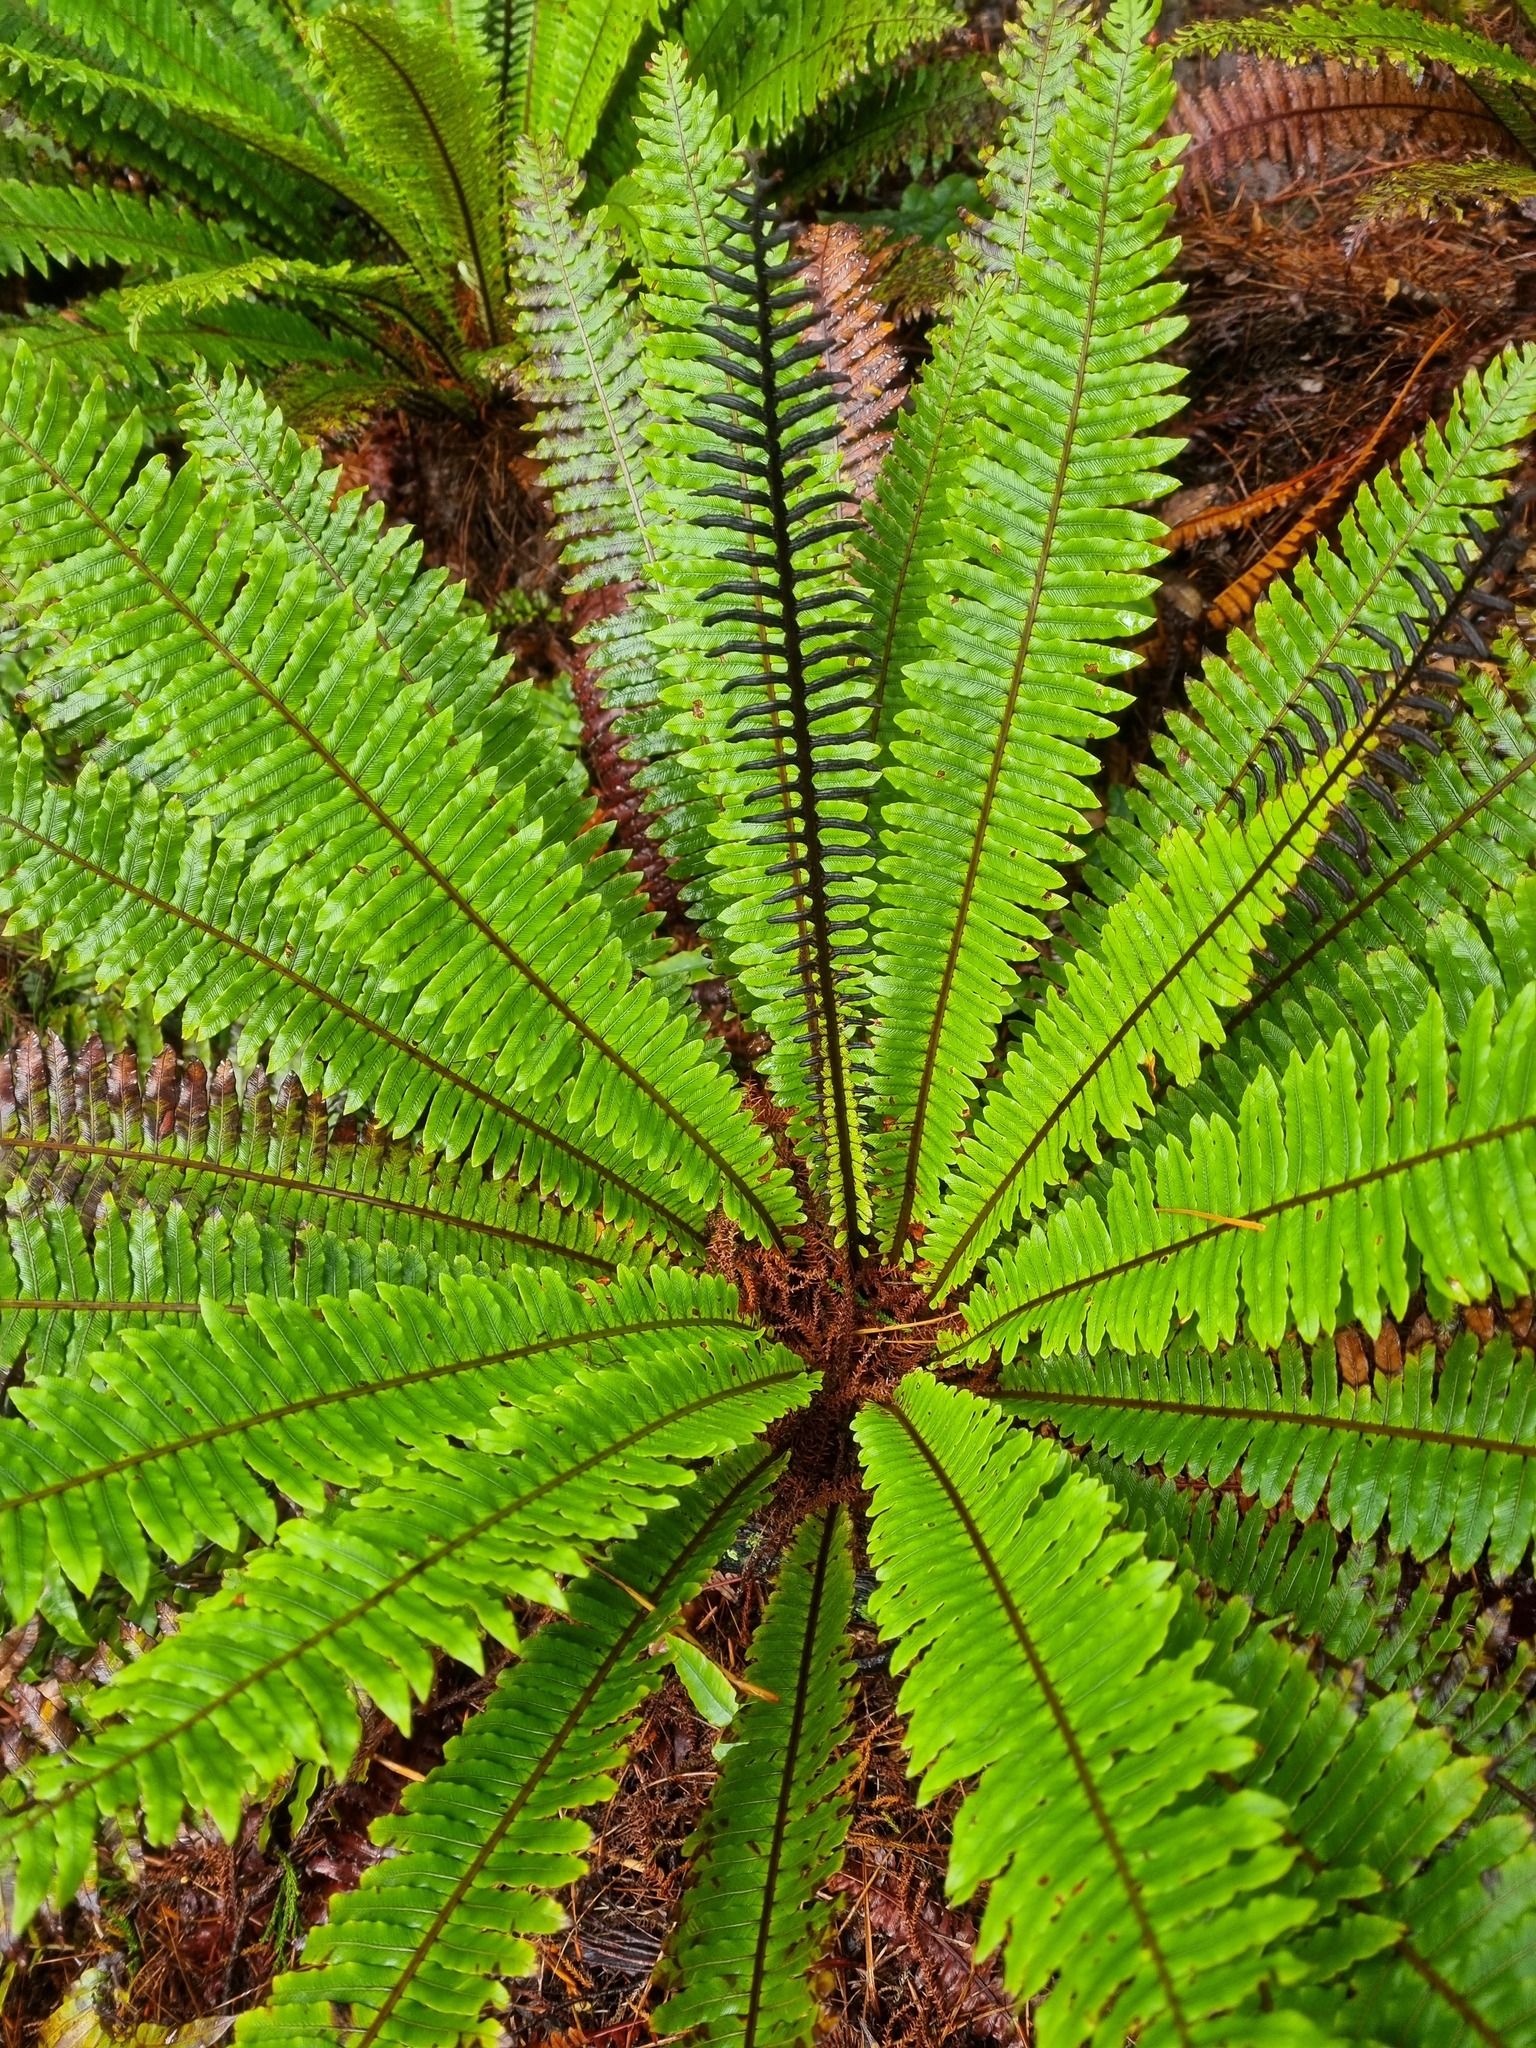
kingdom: Plantae
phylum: Tracheophyta
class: Polypodiopsida
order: Polypodiales
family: Blechnaceae
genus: Lomaria
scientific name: Lomaria discolor
